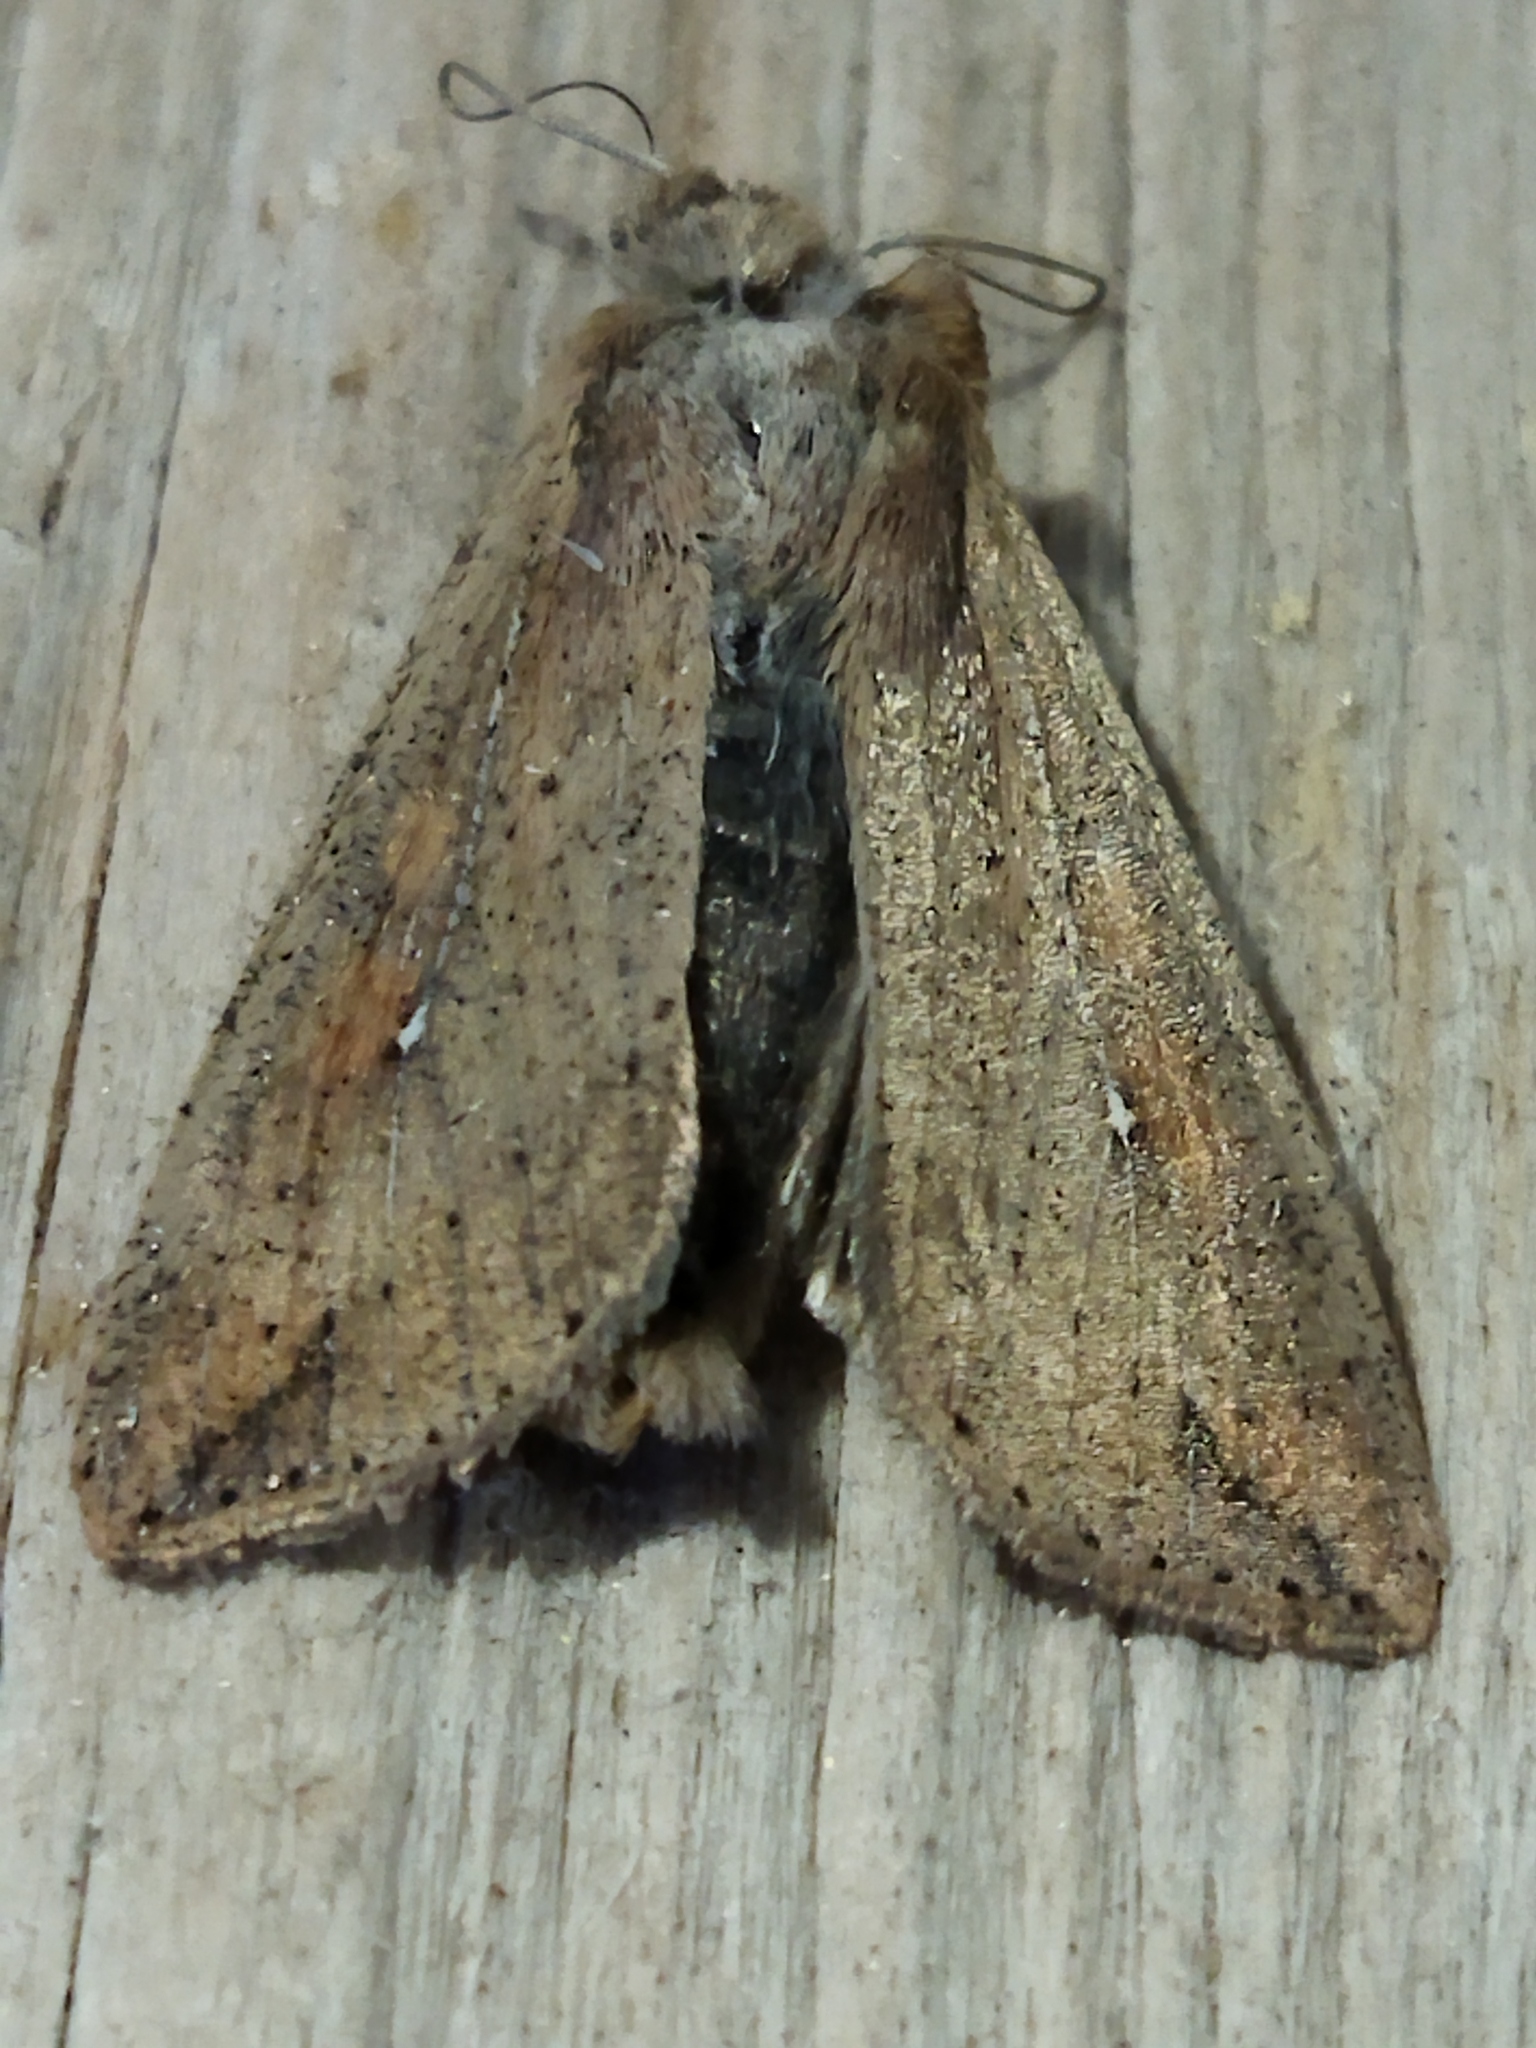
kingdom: Animalia
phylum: Arthropoda
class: Insecta
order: Lepidoptera
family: Noctuidae
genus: Mythimna
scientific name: Mythimna unipuncta
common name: White-speck
